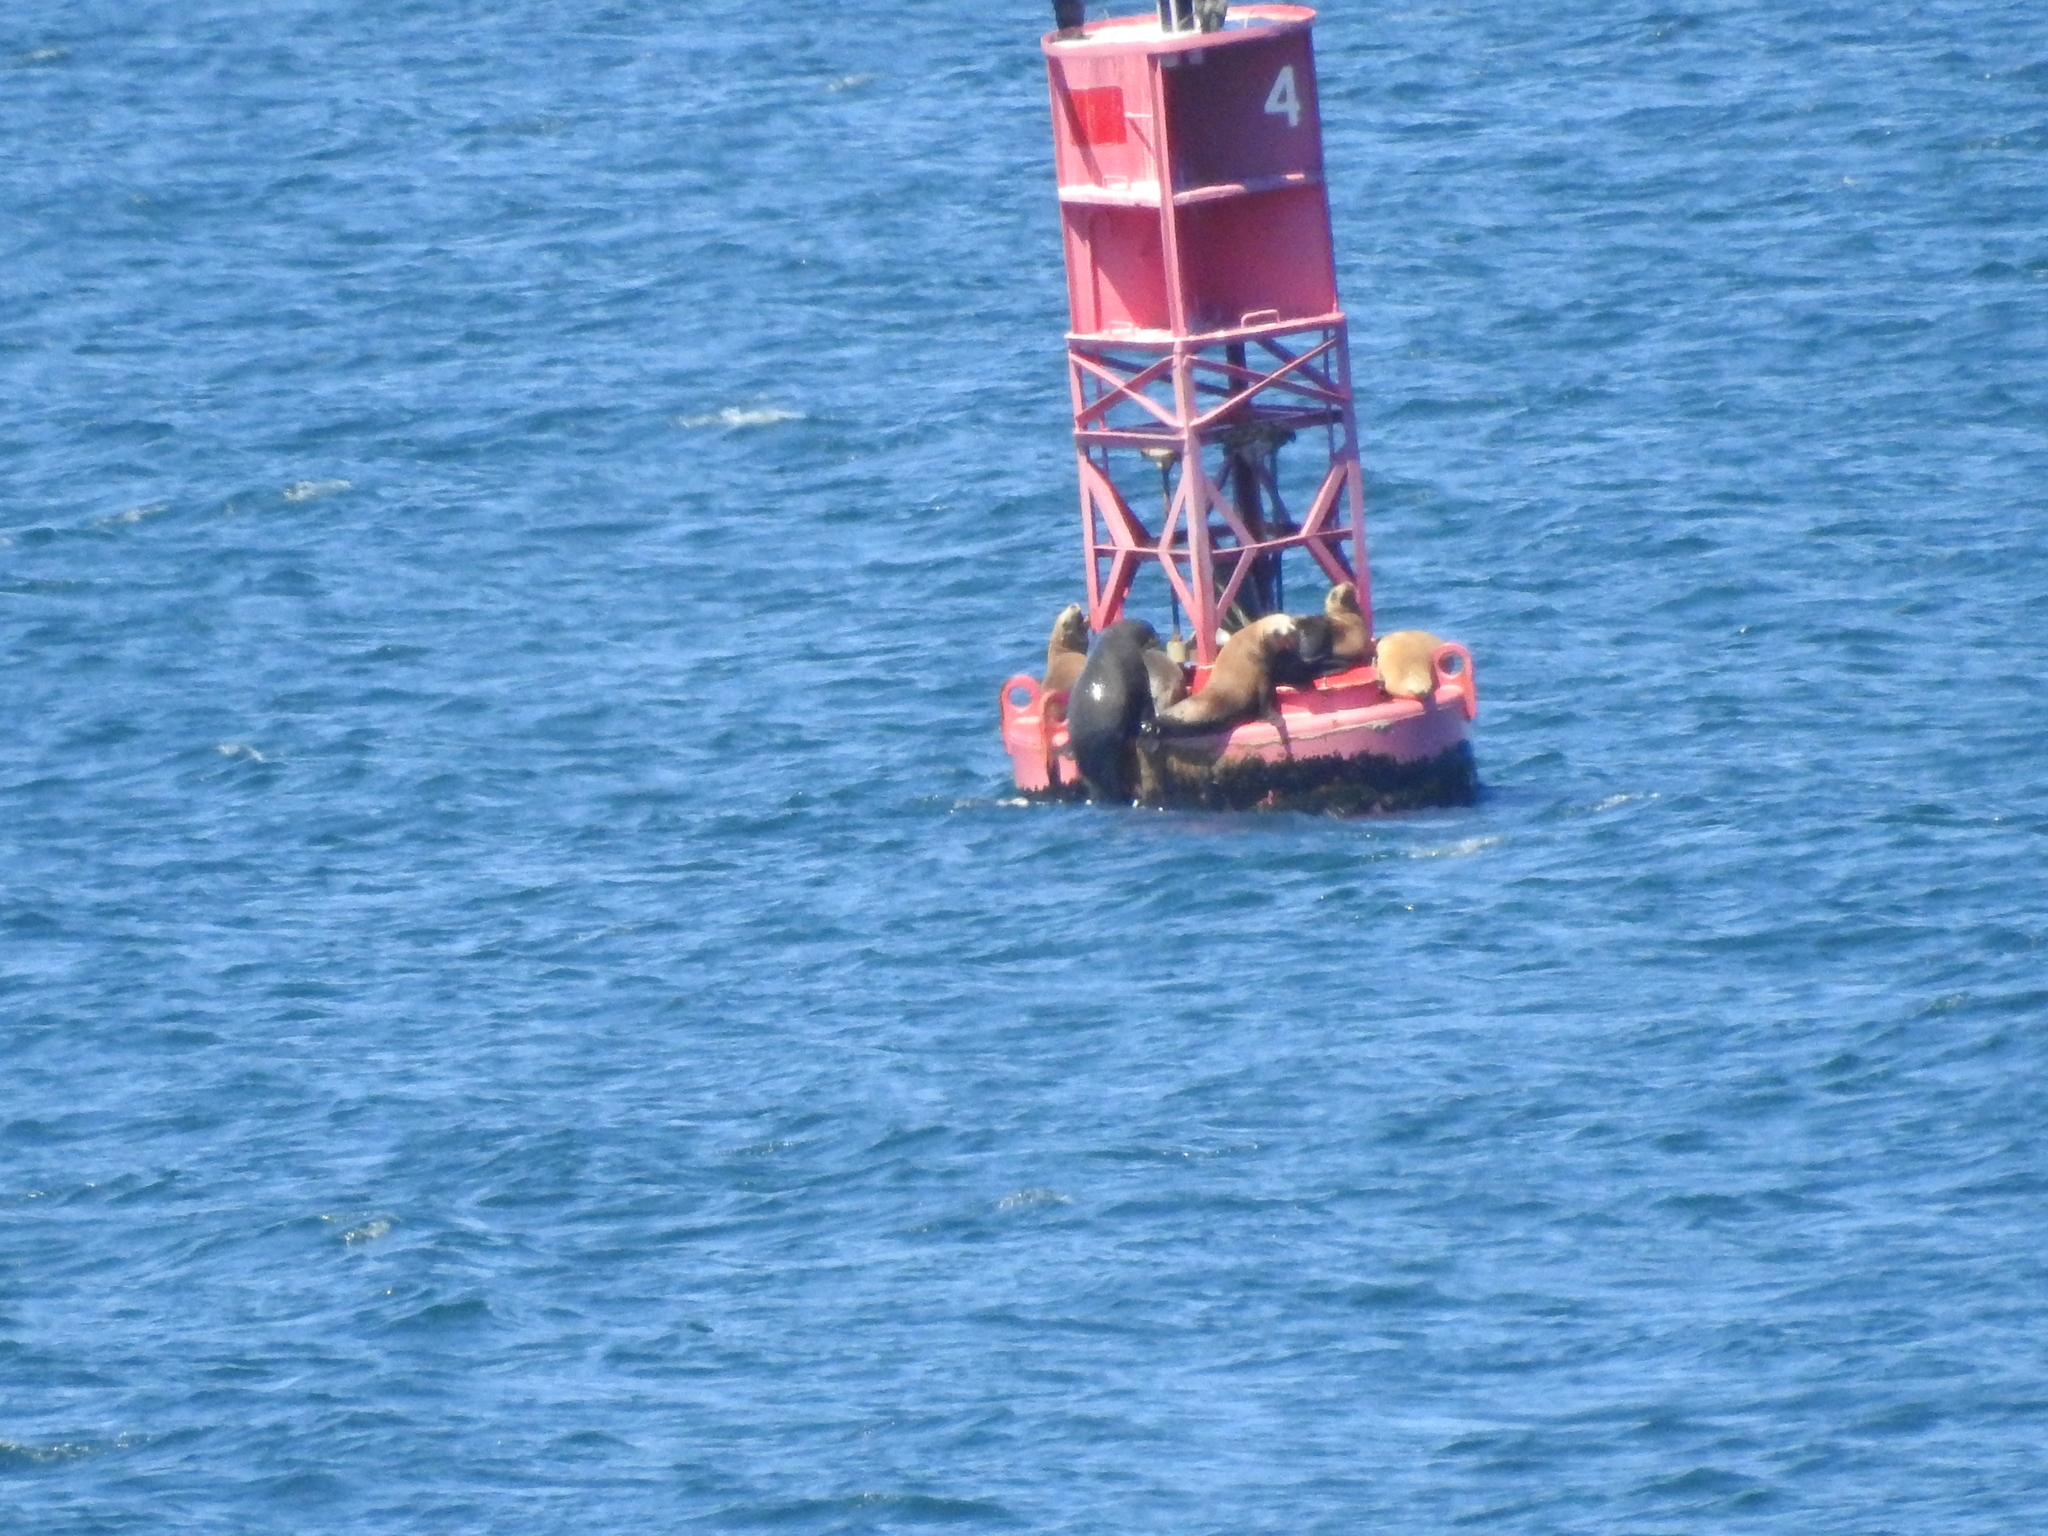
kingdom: Animalia
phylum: Chordata
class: Mammalia
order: Carnivora
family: Otariidae
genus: Zalophus
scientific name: Zalophus californianus
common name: California sea lion
